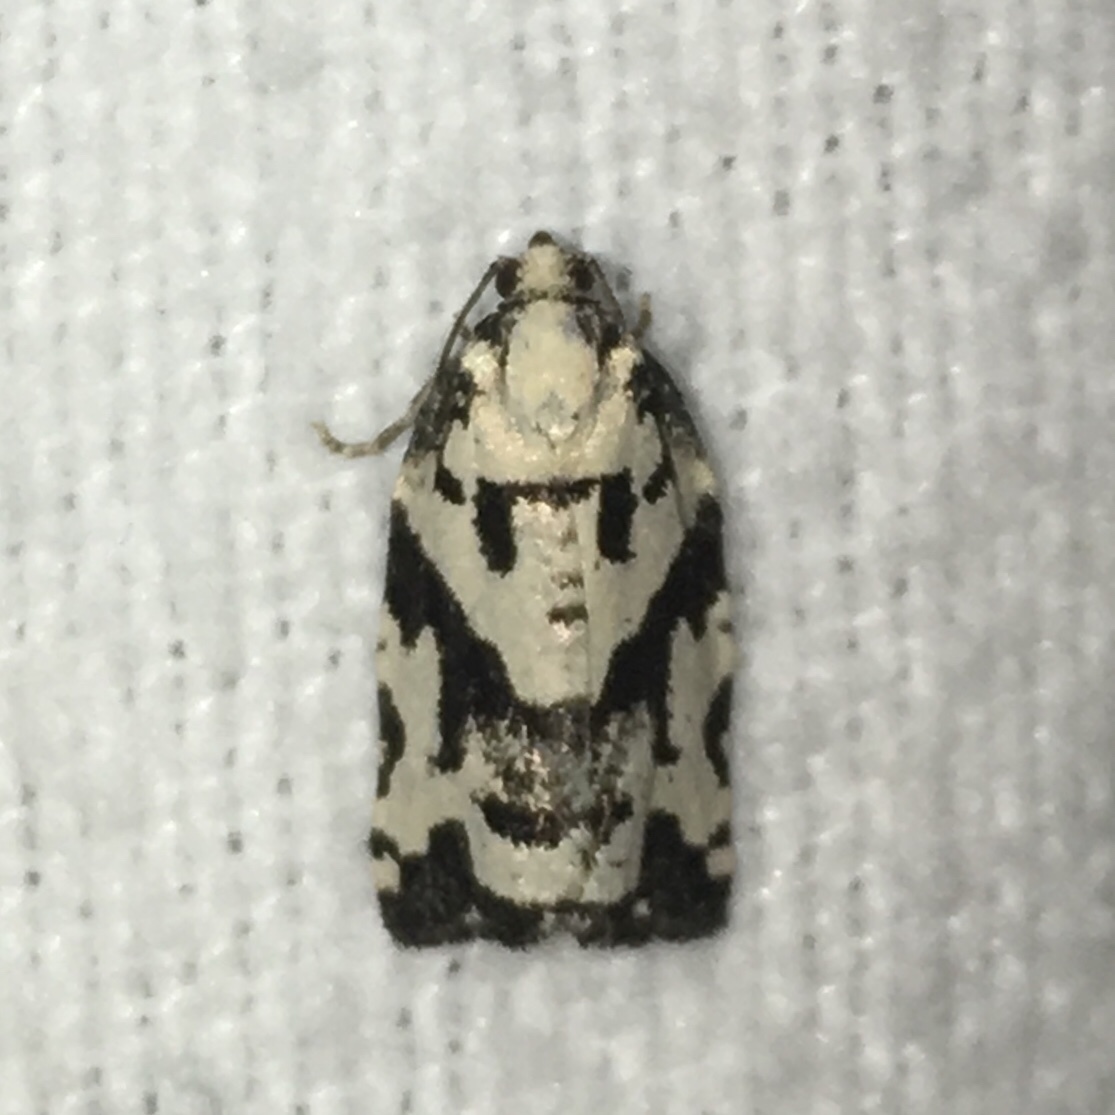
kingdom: Animalia
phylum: Arthropoda
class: Insecta
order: Lepidoptera
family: Tortricidae
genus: Archips
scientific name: Archips dissitana
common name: Boldly-marked archips moth
